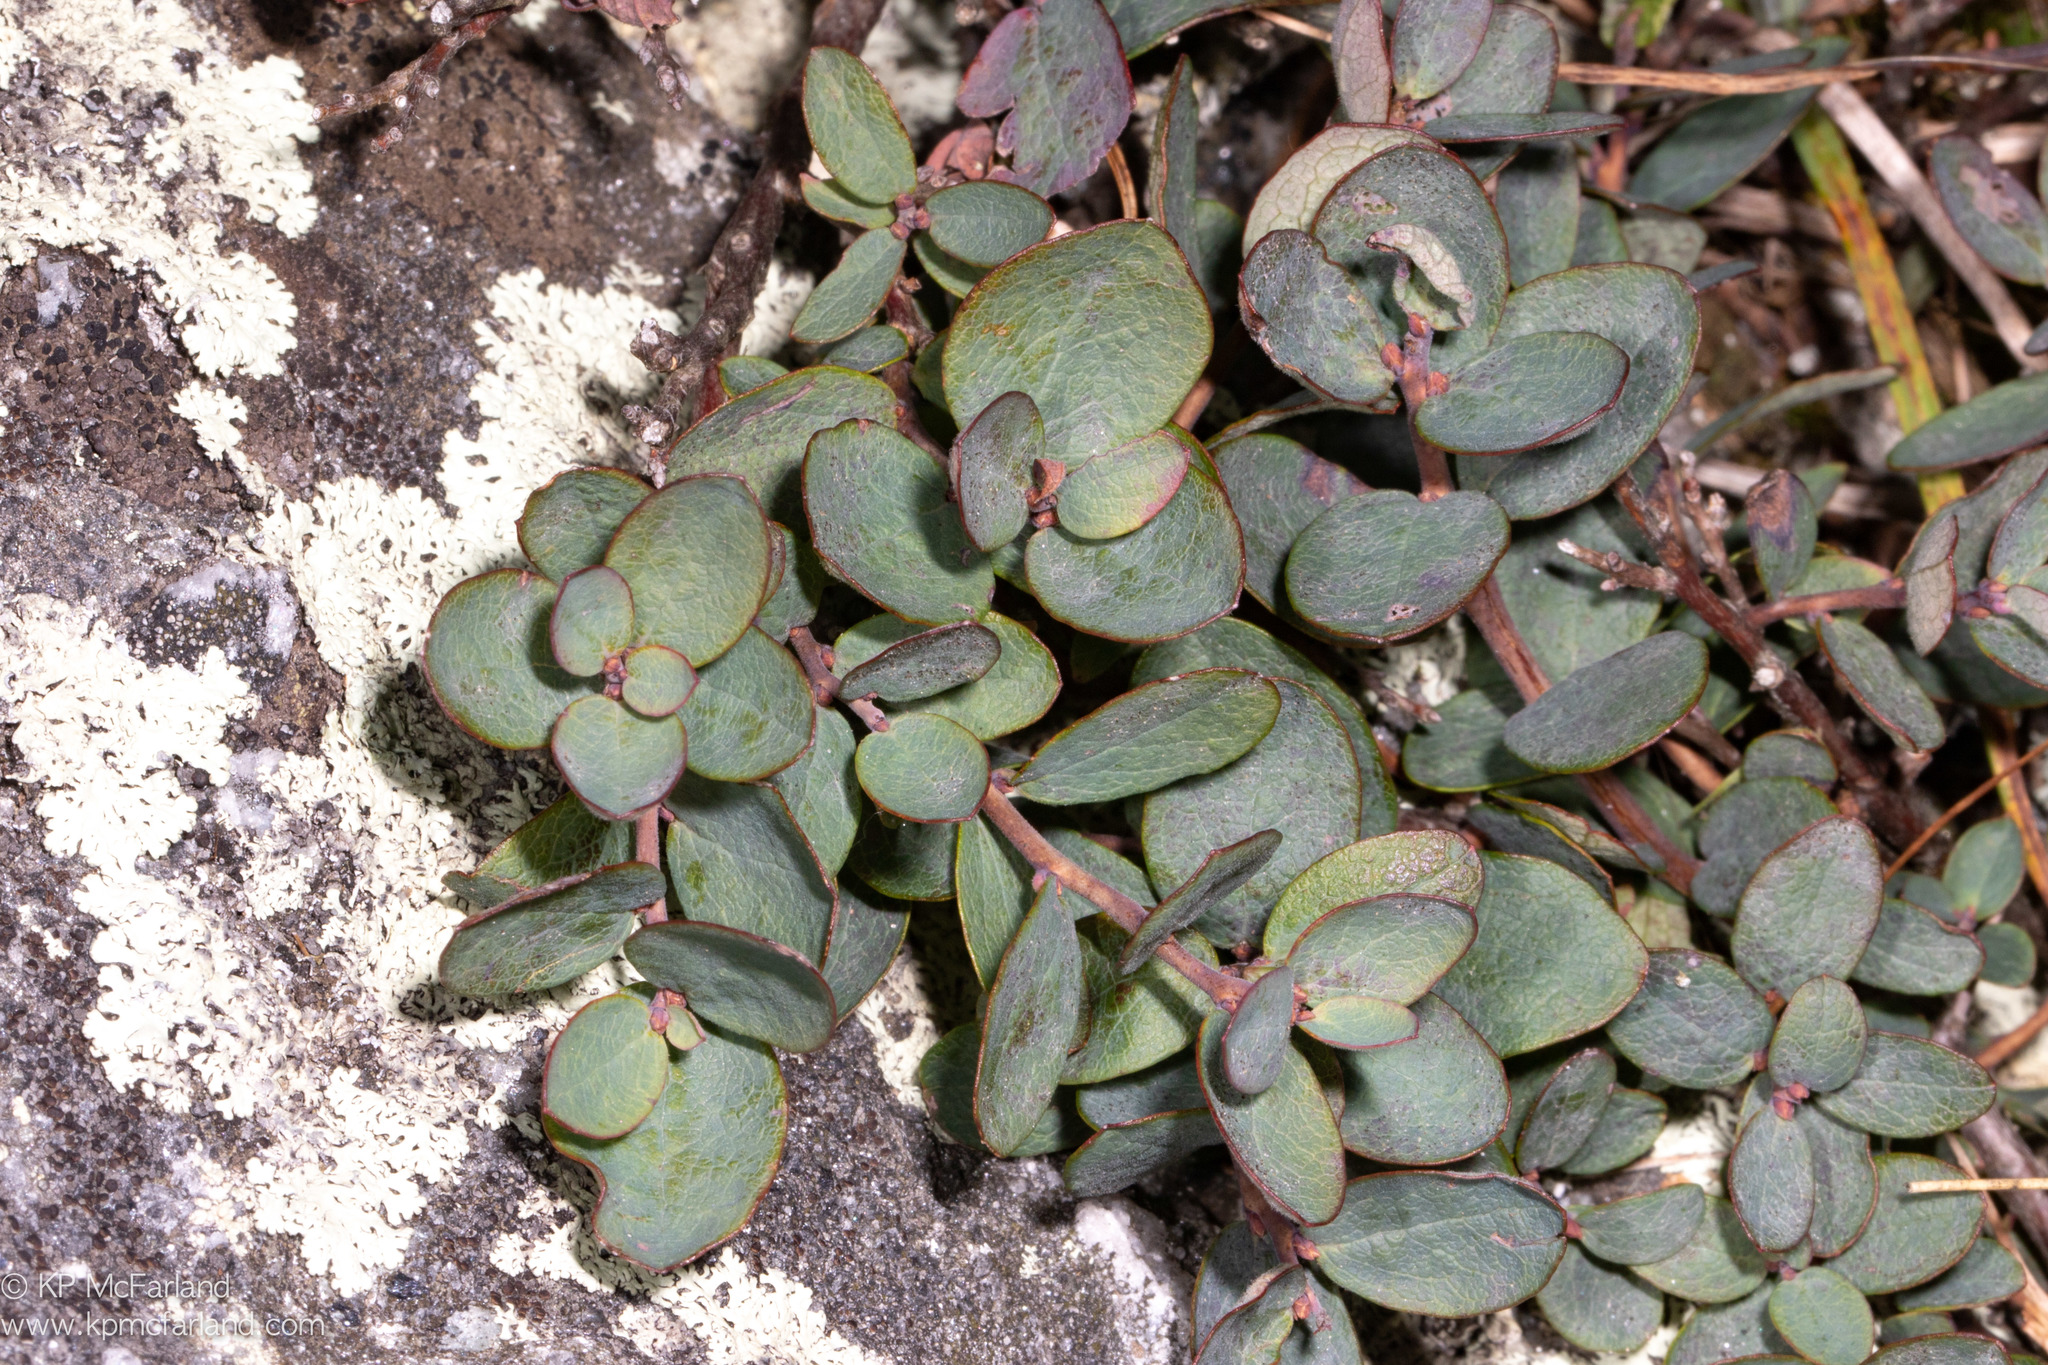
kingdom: Plantae
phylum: Tracheophyta
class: Magnoliopsida
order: Ericales
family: Ericaceae
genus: Vaccinium
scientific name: Vaccinium uliginosum
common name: Bog bilberry
